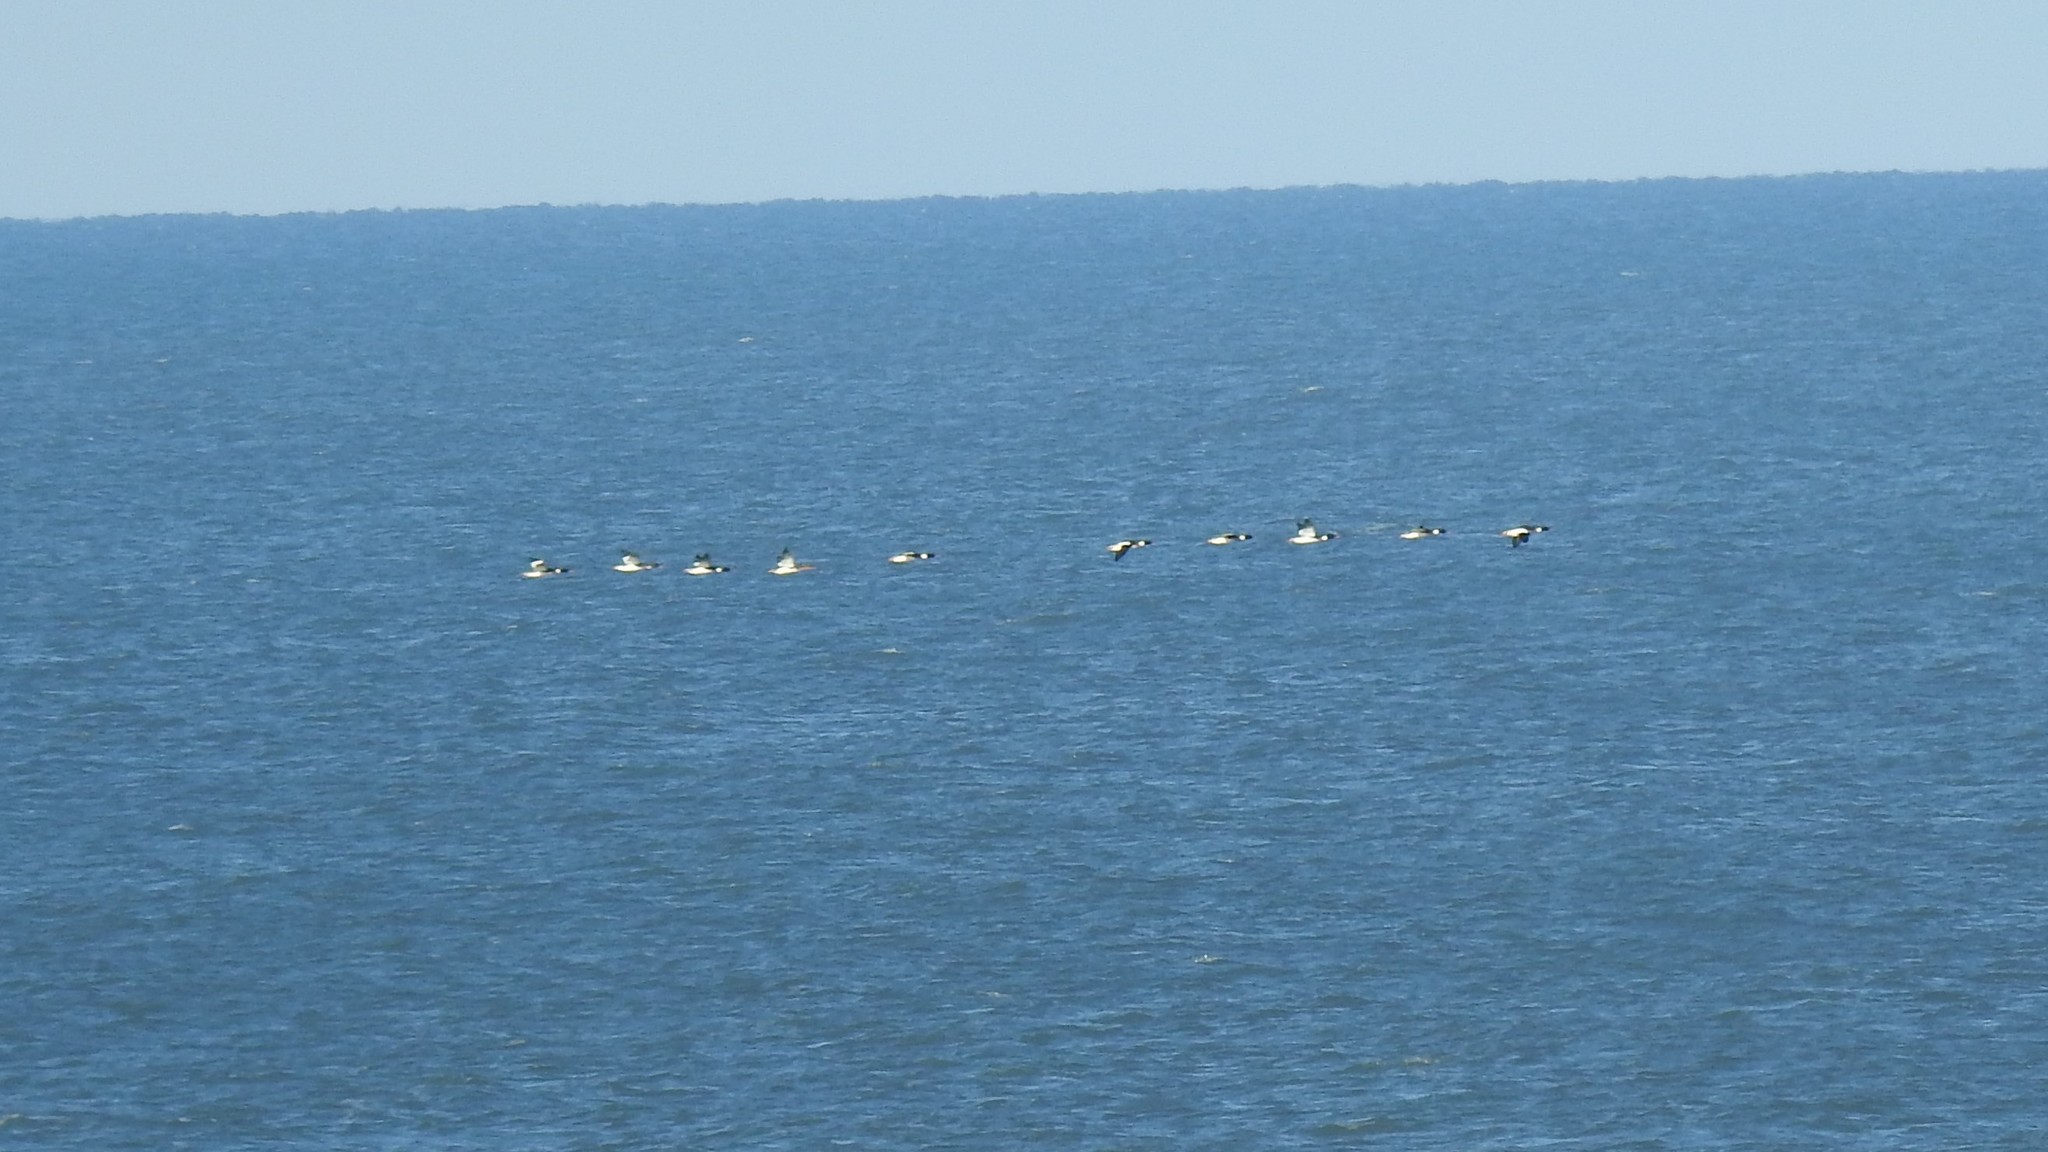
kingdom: Animalia
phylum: Chordata
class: Aves
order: Anseriformes
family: Anatidae
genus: Mergus
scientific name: Mergus serrator
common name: Red-breasted merganser
